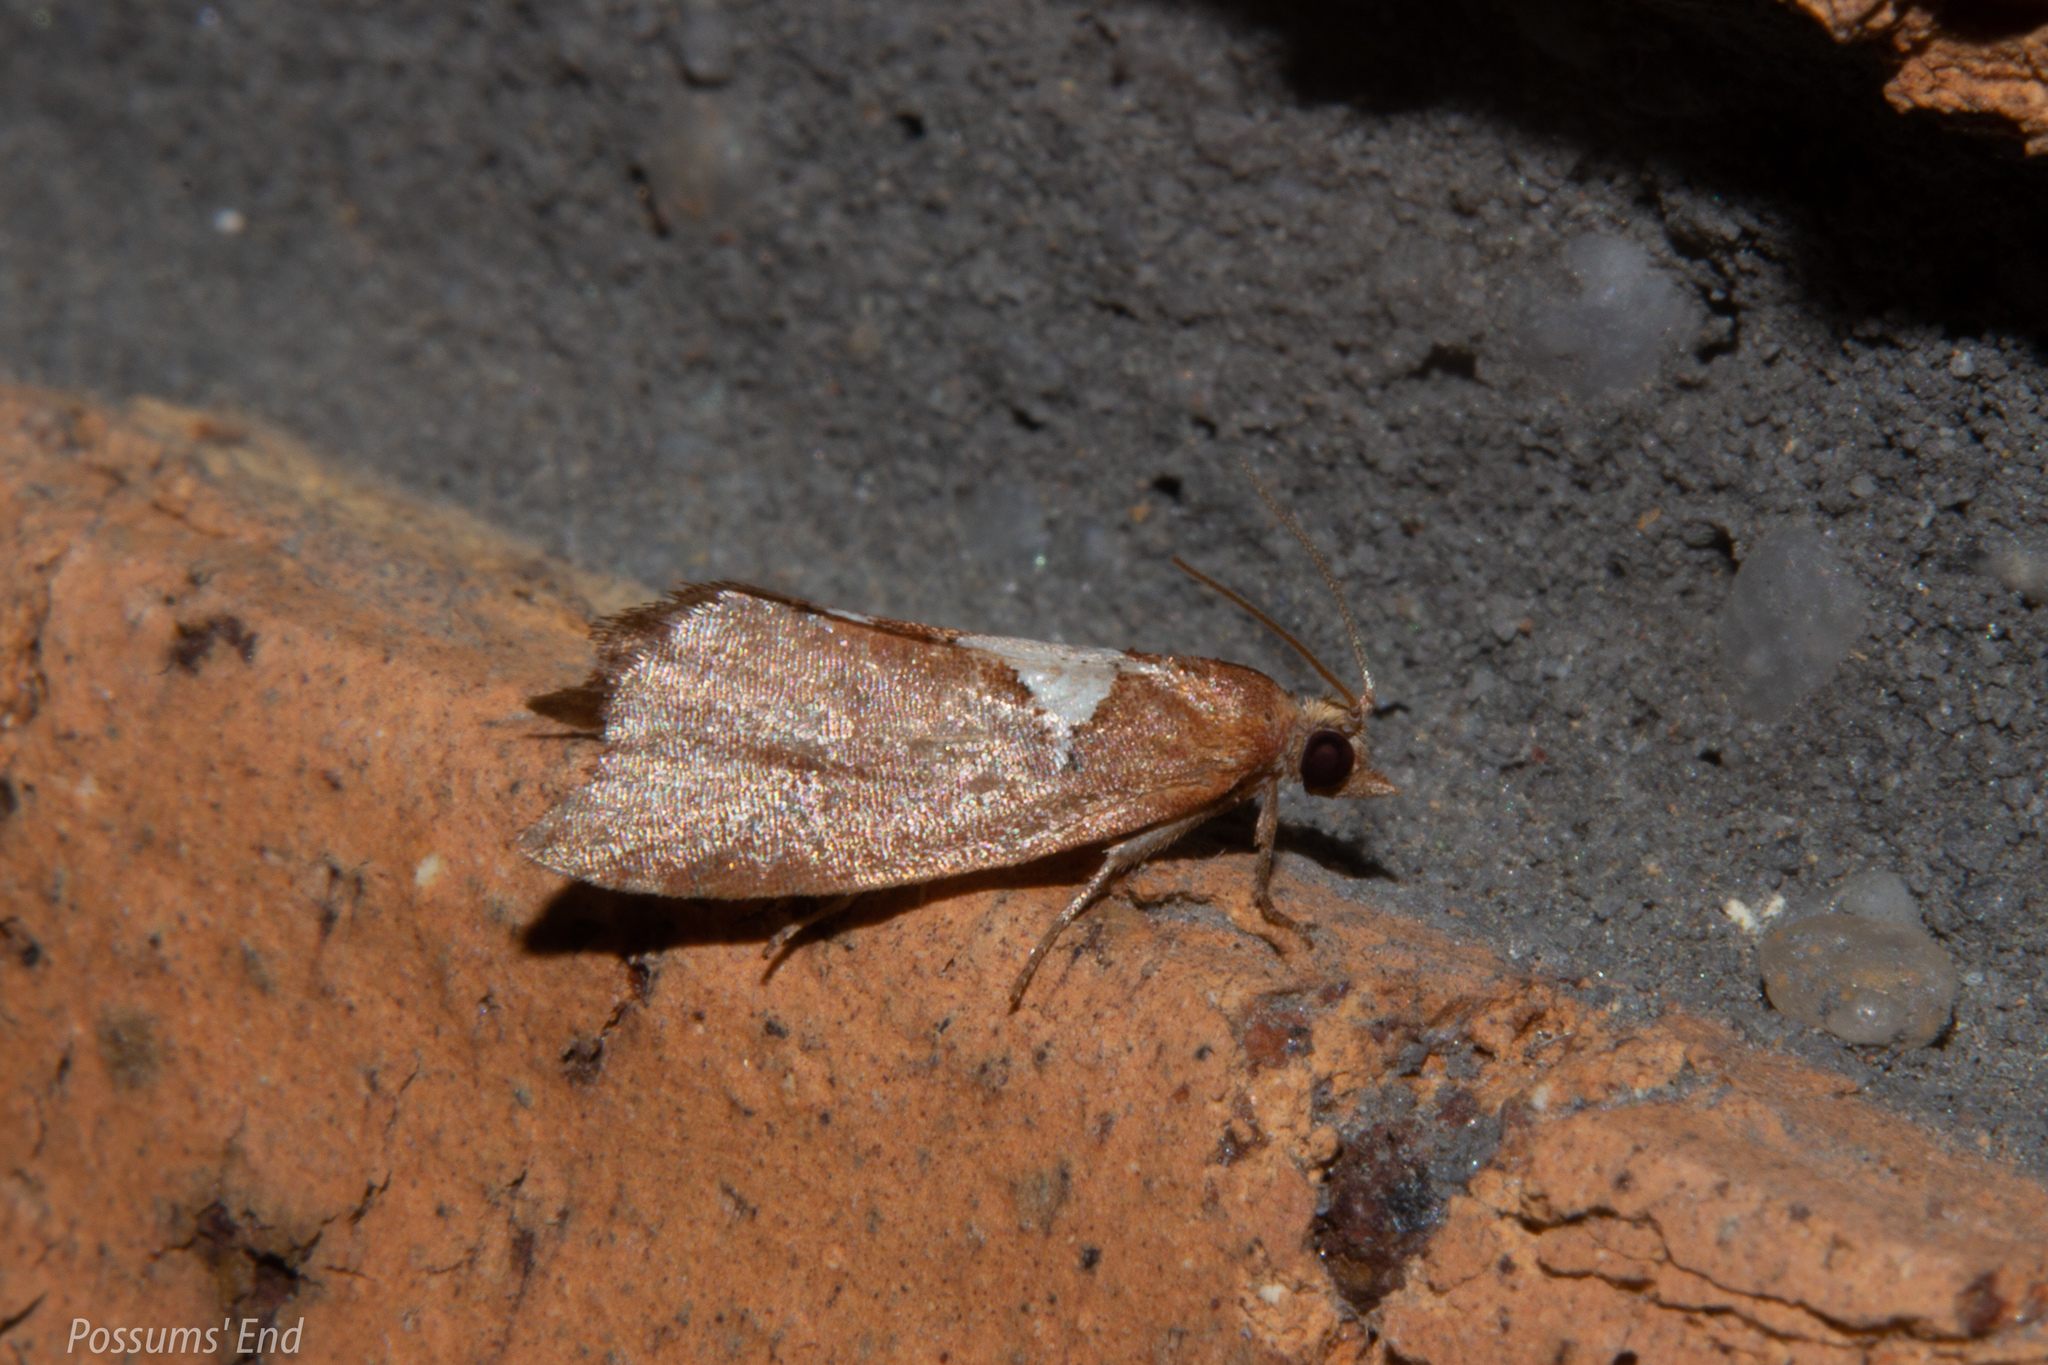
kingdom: Animalia
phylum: Arthropoda
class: Insecta
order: Lepidoptera
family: Tortricidae
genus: Pyrgotis
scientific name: Pyrgotis pyramidias
